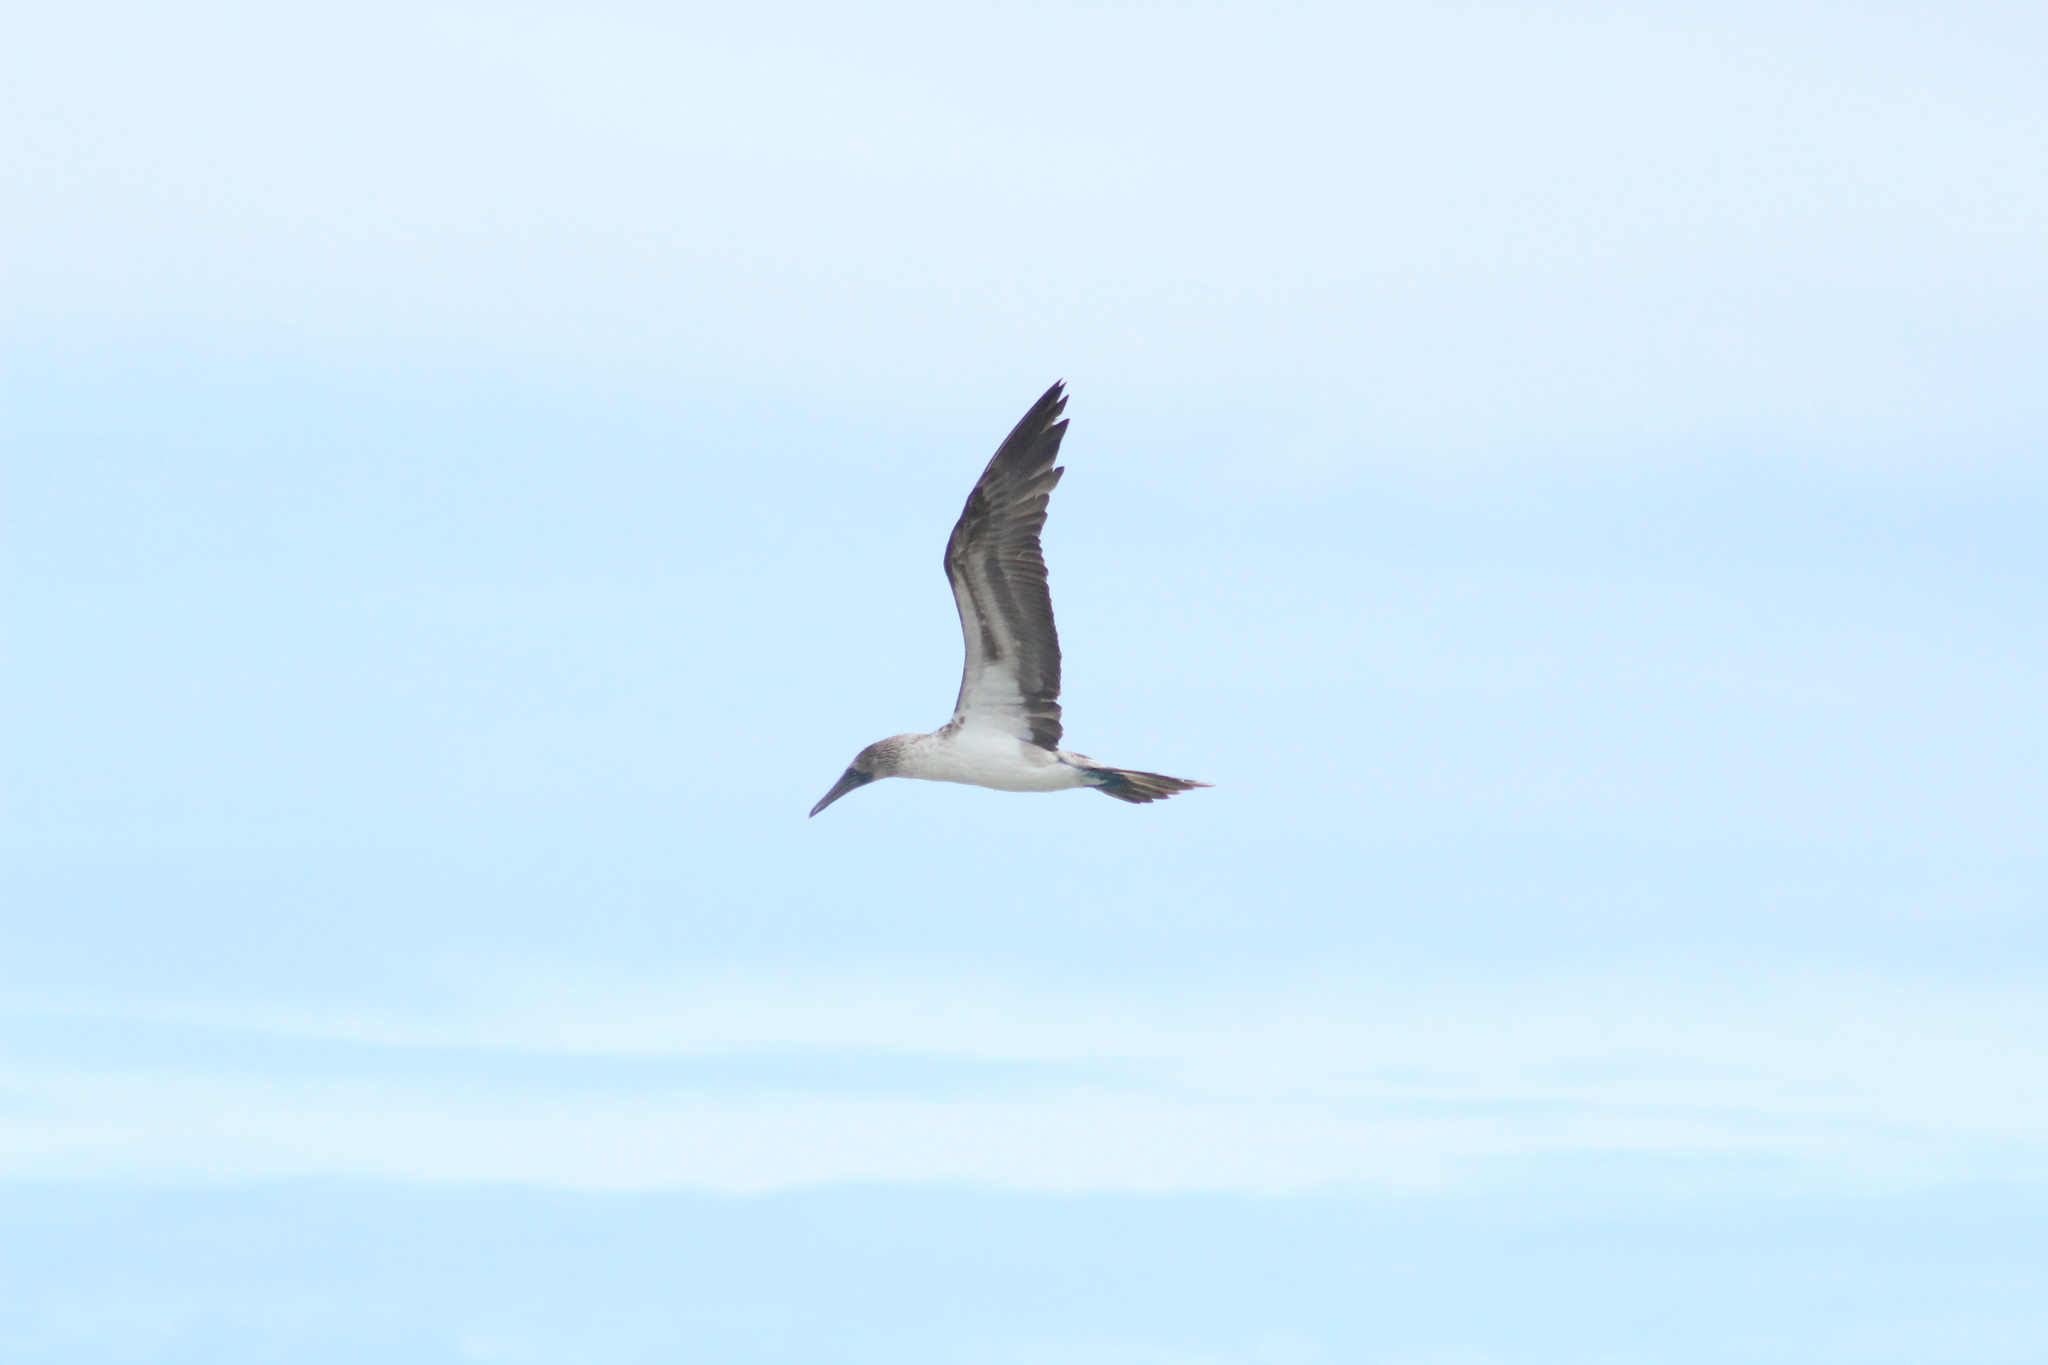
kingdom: Animalia
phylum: Chordata
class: Aves
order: Suliformes
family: Sulidae
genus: Sula
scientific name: Sula nebouxii
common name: Blue-footed booby
